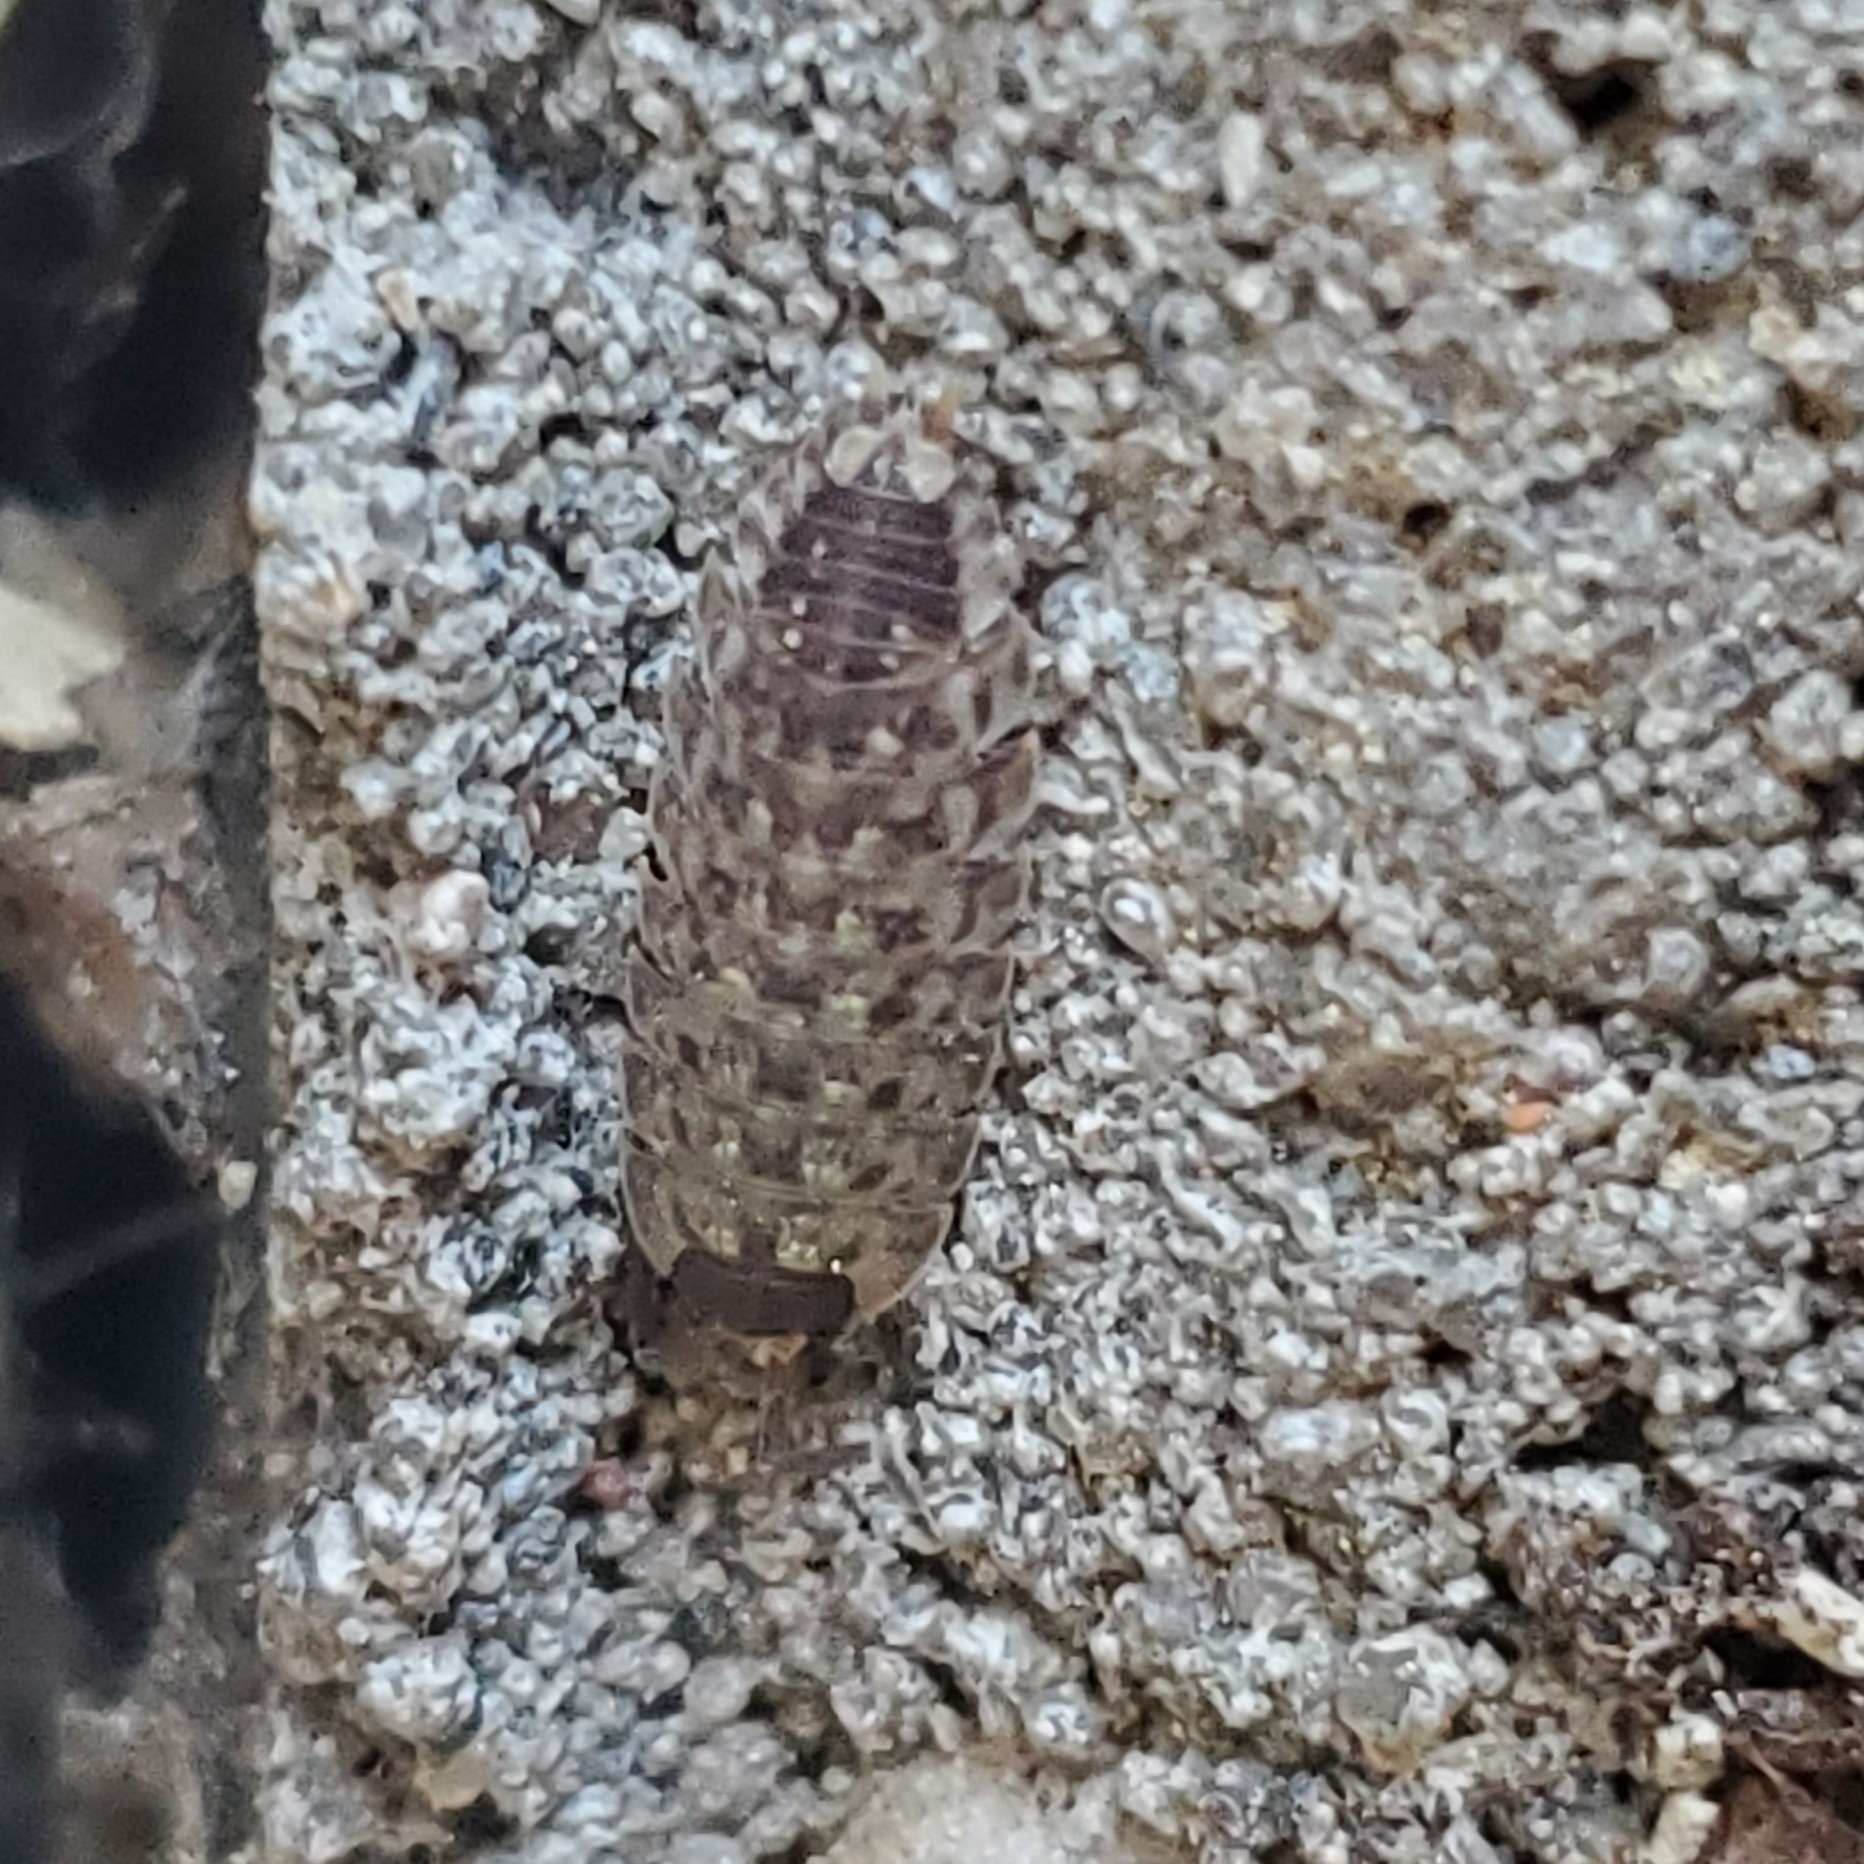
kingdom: Animalia
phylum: Arthropoda
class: Malacostraca
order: Isopoda
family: Porcellionidae
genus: Porcellio
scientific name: Porcellio spinicornis
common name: Painted woodlouse
